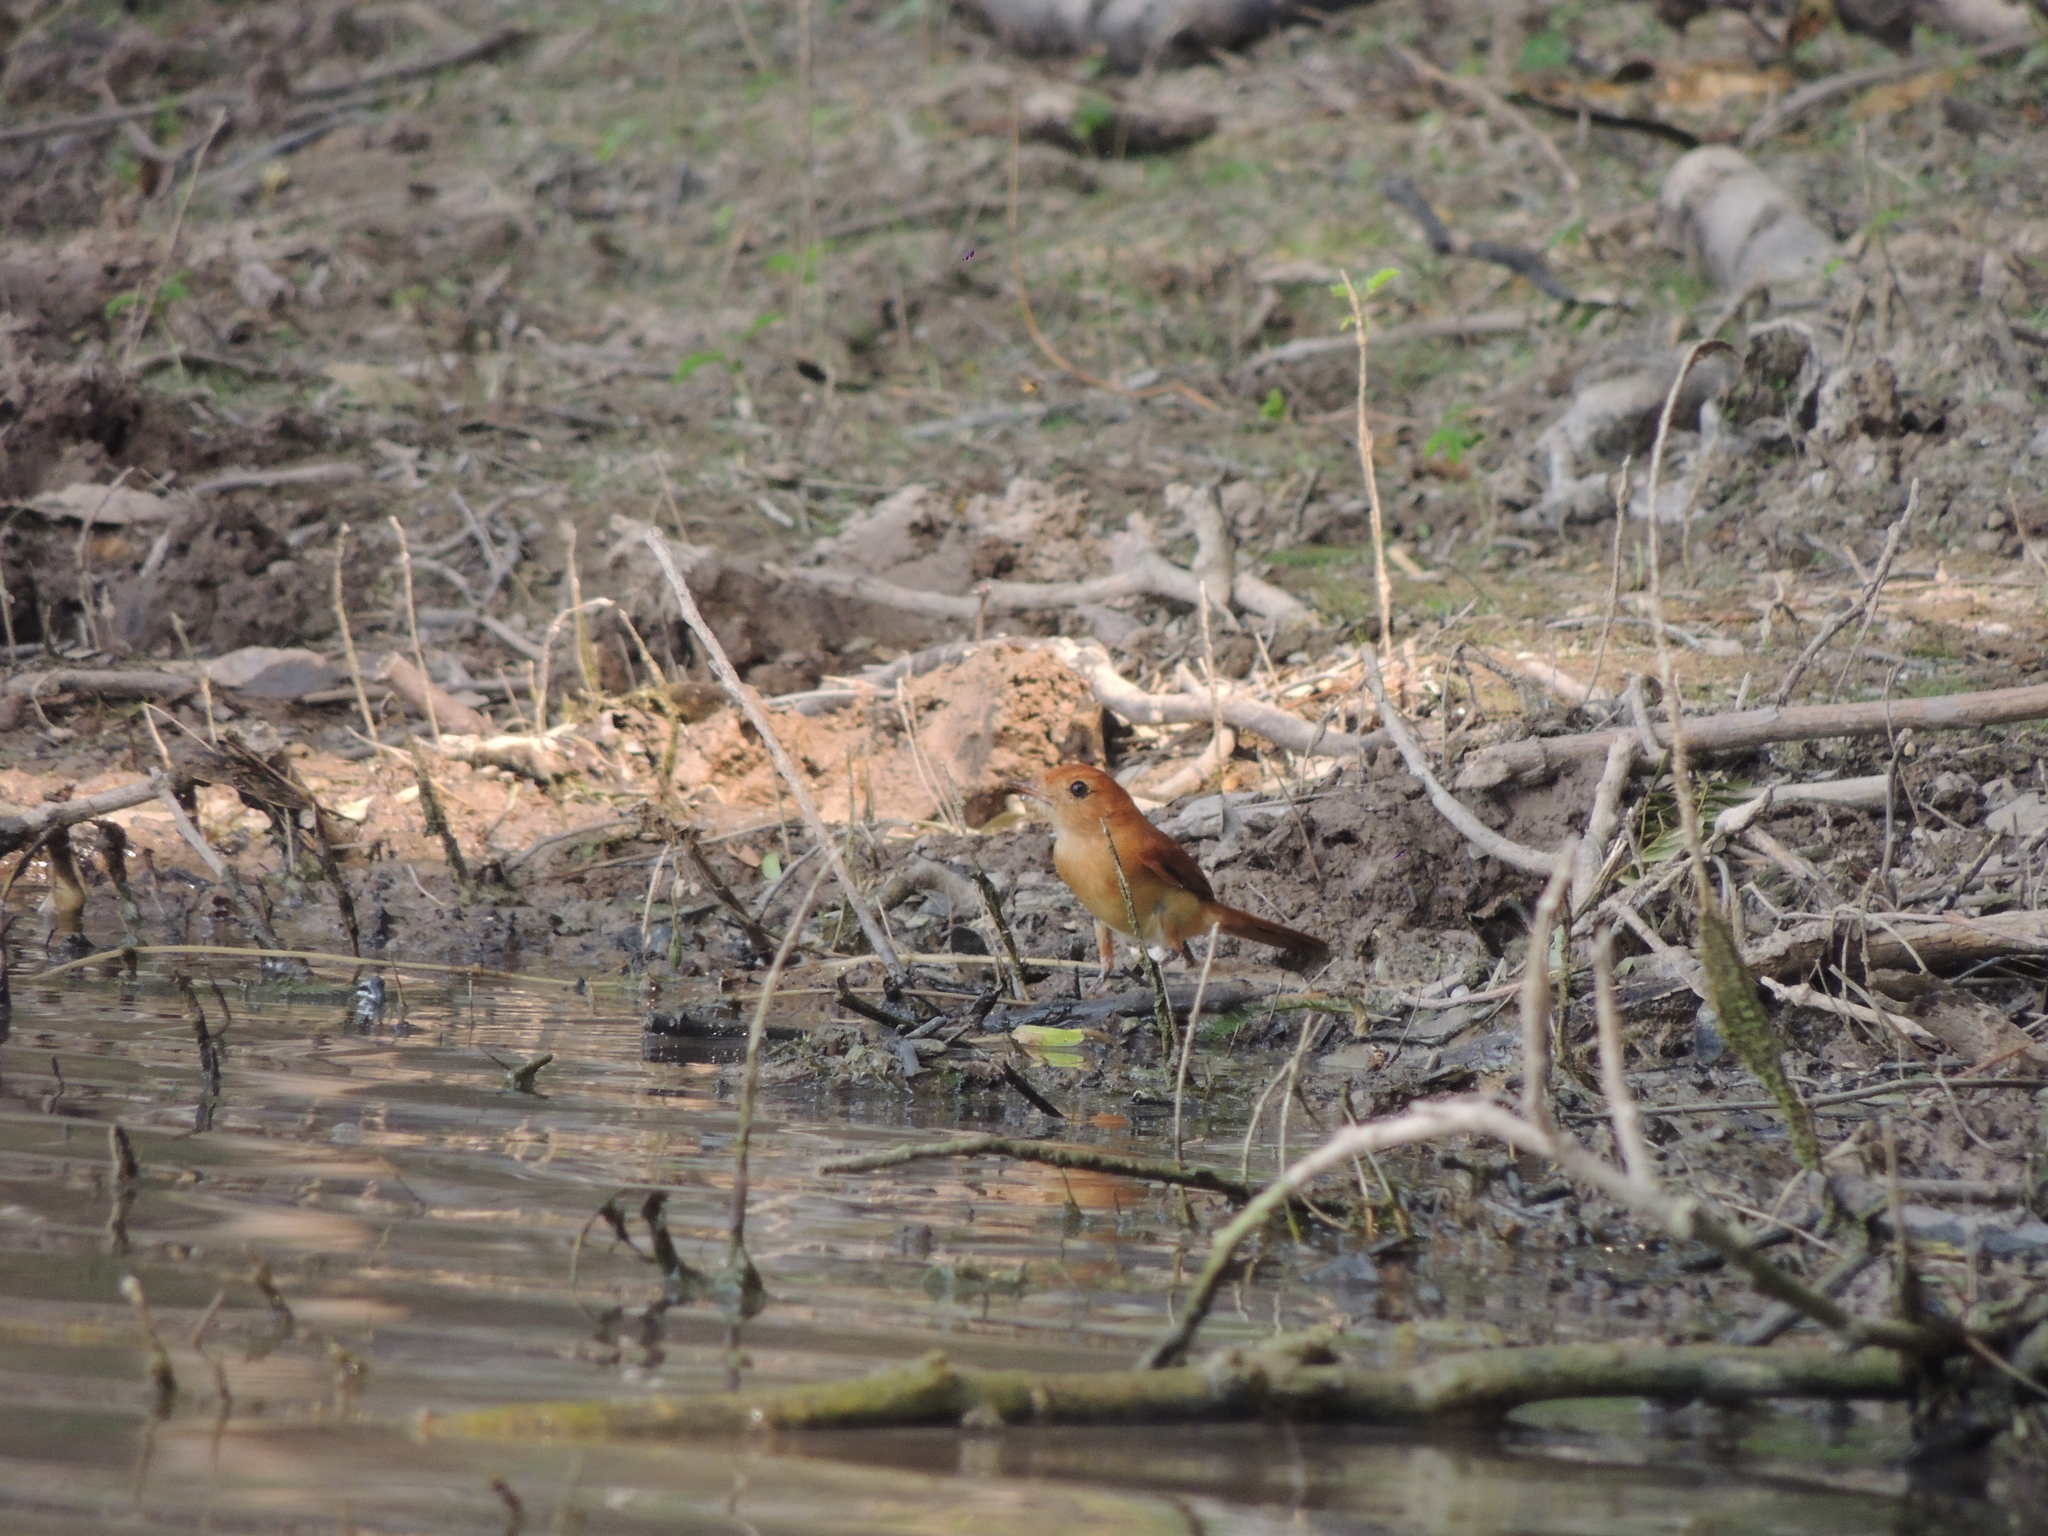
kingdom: Animalia
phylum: Chordata
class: Aves
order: Passeriformes
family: Tyrannidae
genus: Casiornis
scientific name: Casiornis rufus
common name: Rufous casiornis
